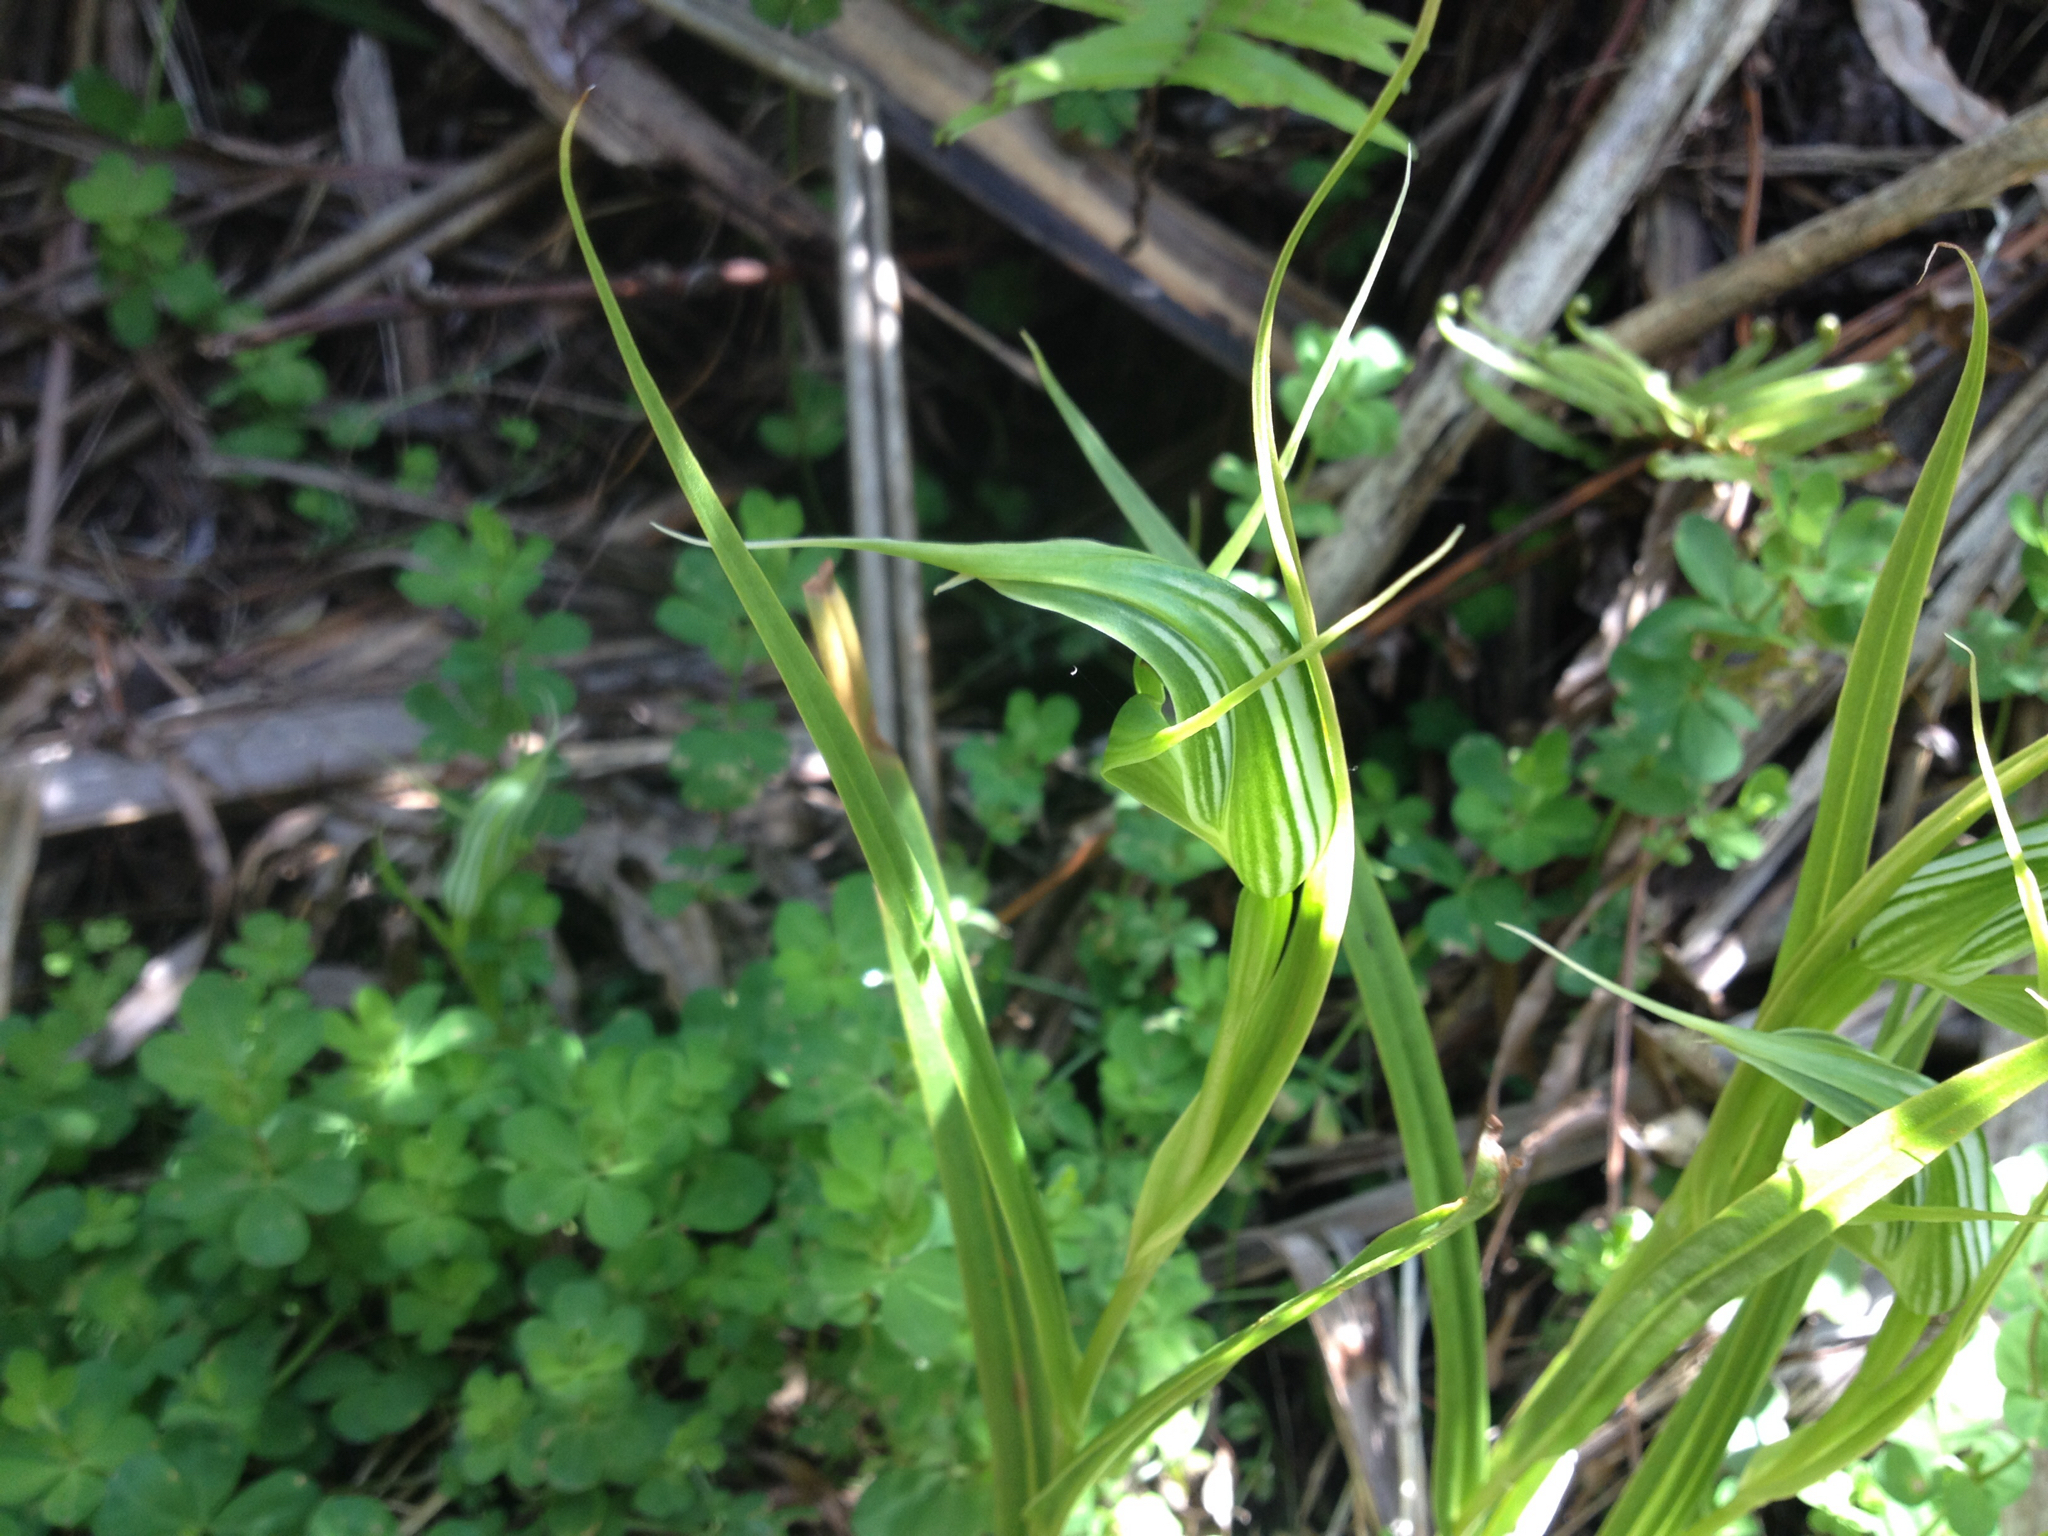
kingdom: Plantae
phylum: Tracheophyta
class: Liliopsida
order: Asparagales
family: Orchidaceae
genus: Pterostylis
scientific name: Pterostylis banksii
